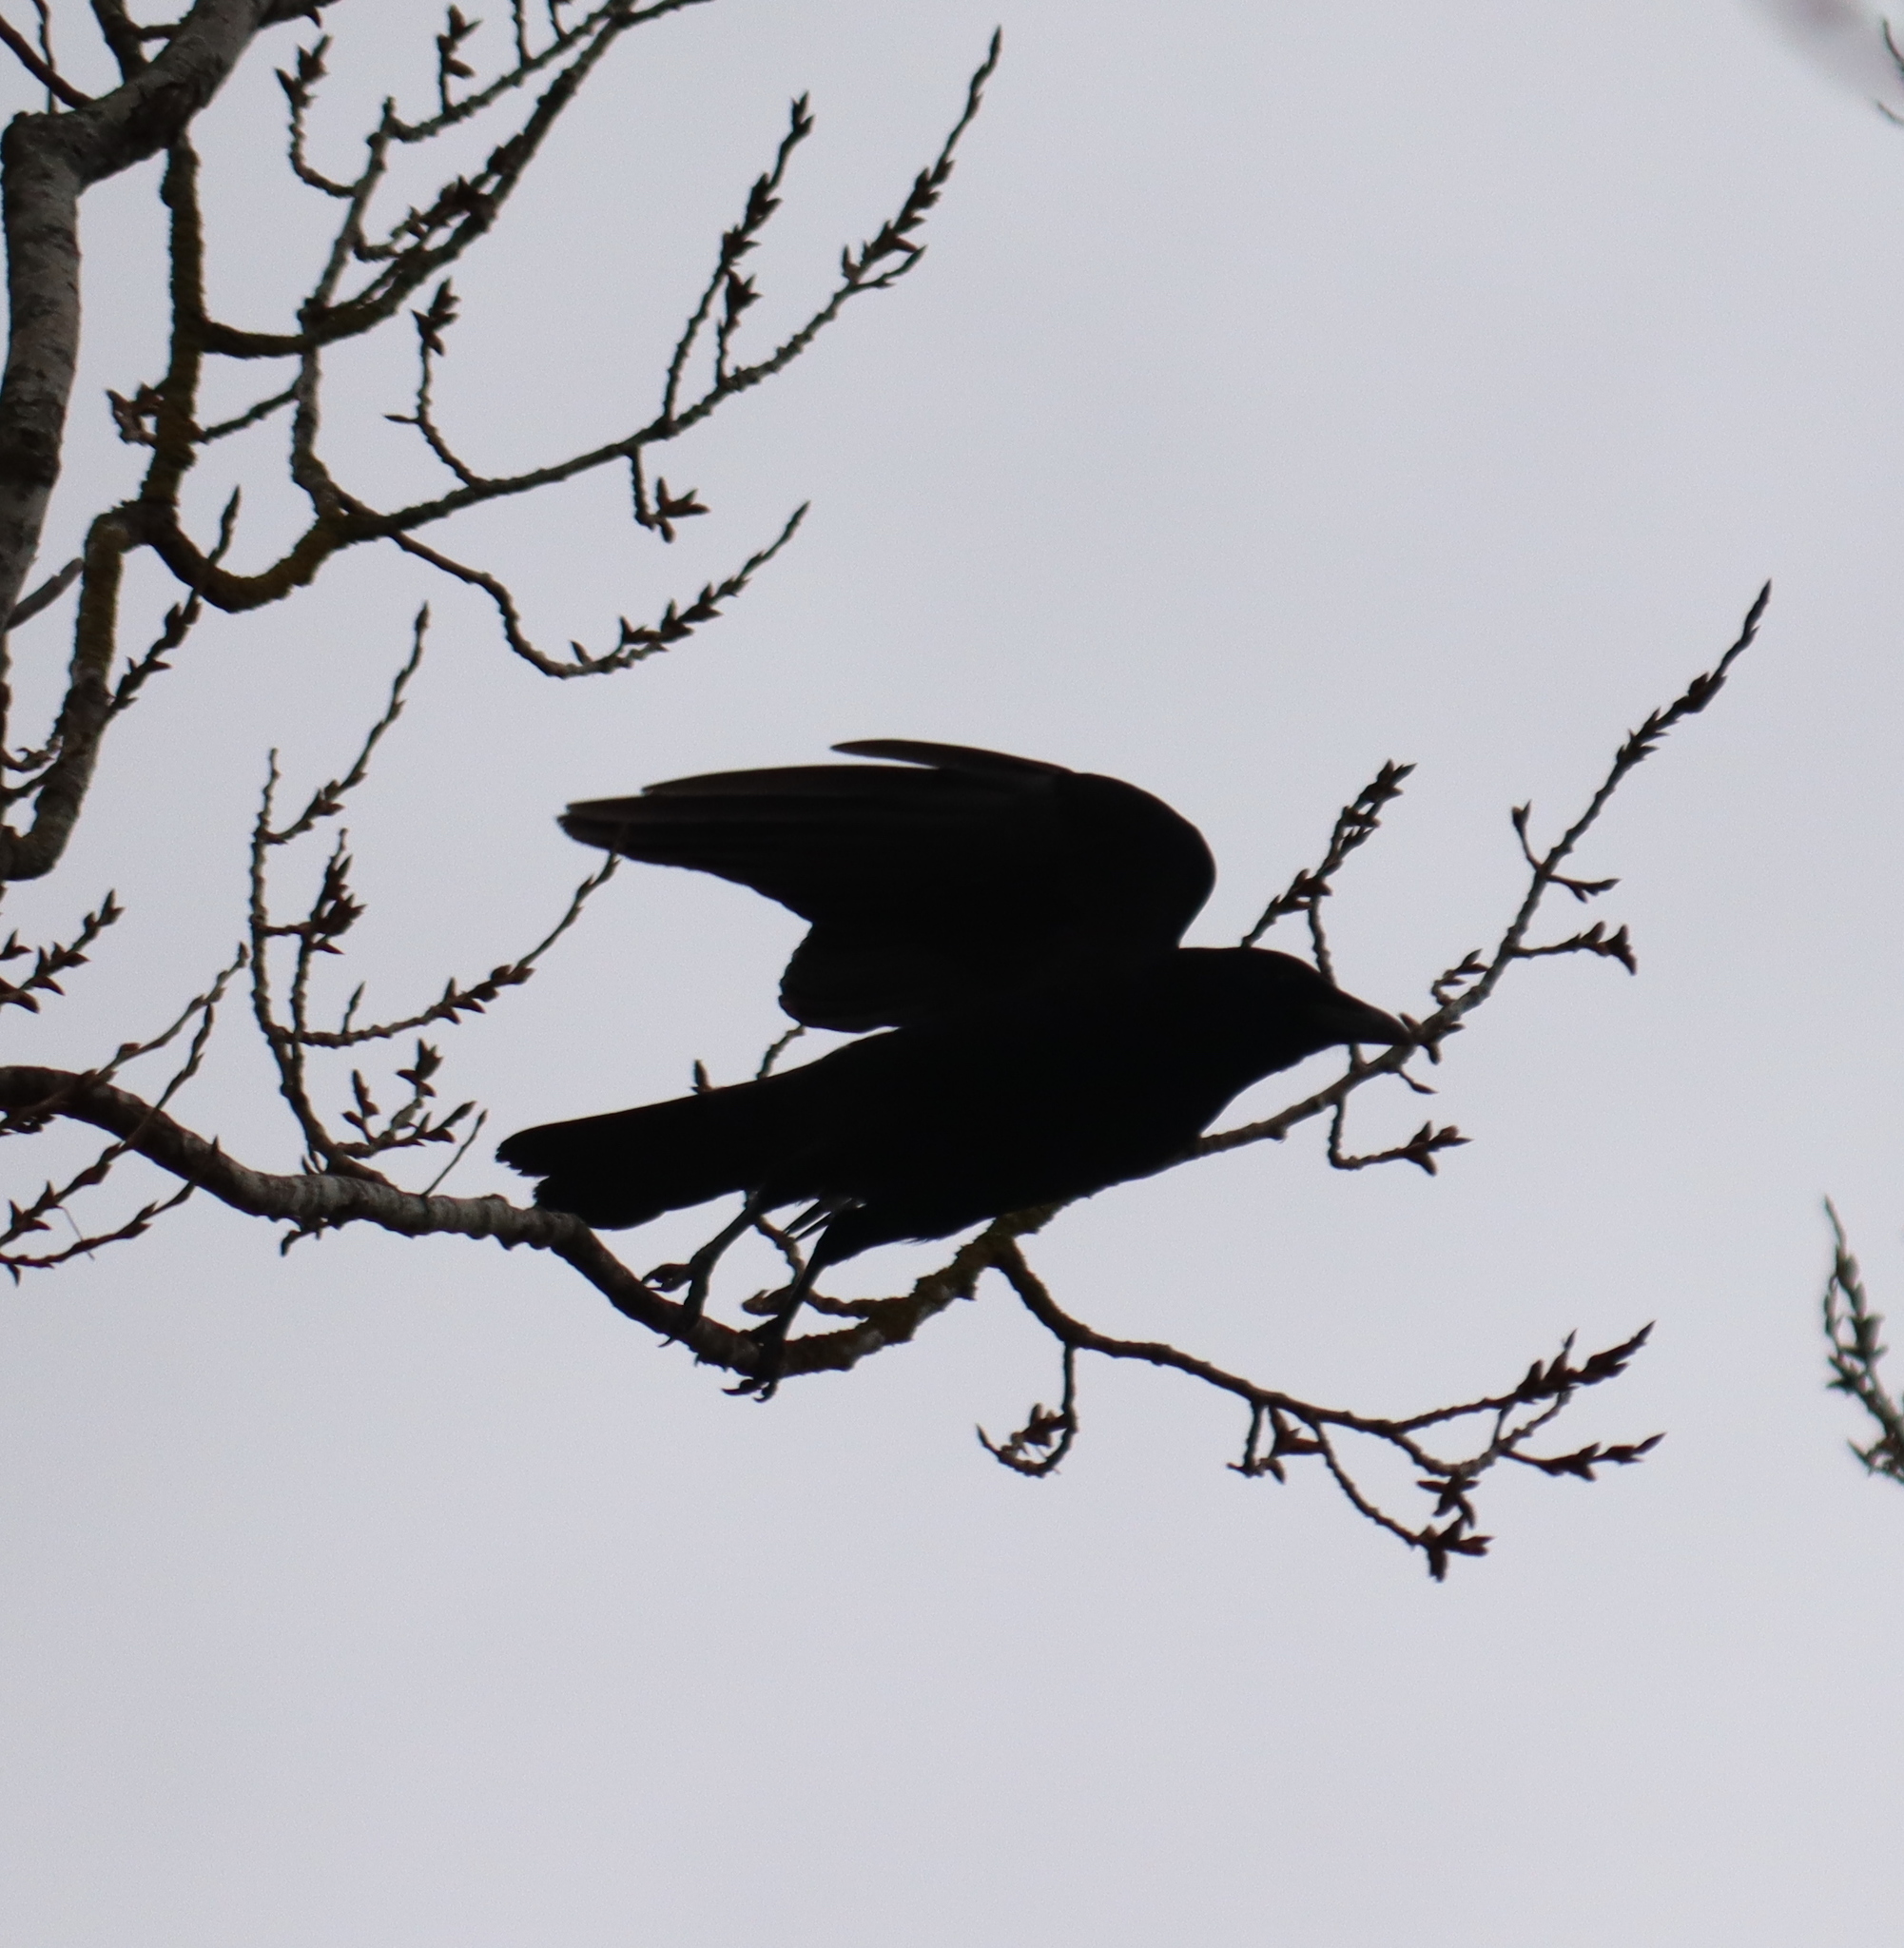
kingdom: Animalia
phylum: Chordata
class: Aves
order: Passeriformes
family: Corvidae
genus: Corvus
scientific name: Corvus corone
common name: Carrion crow
